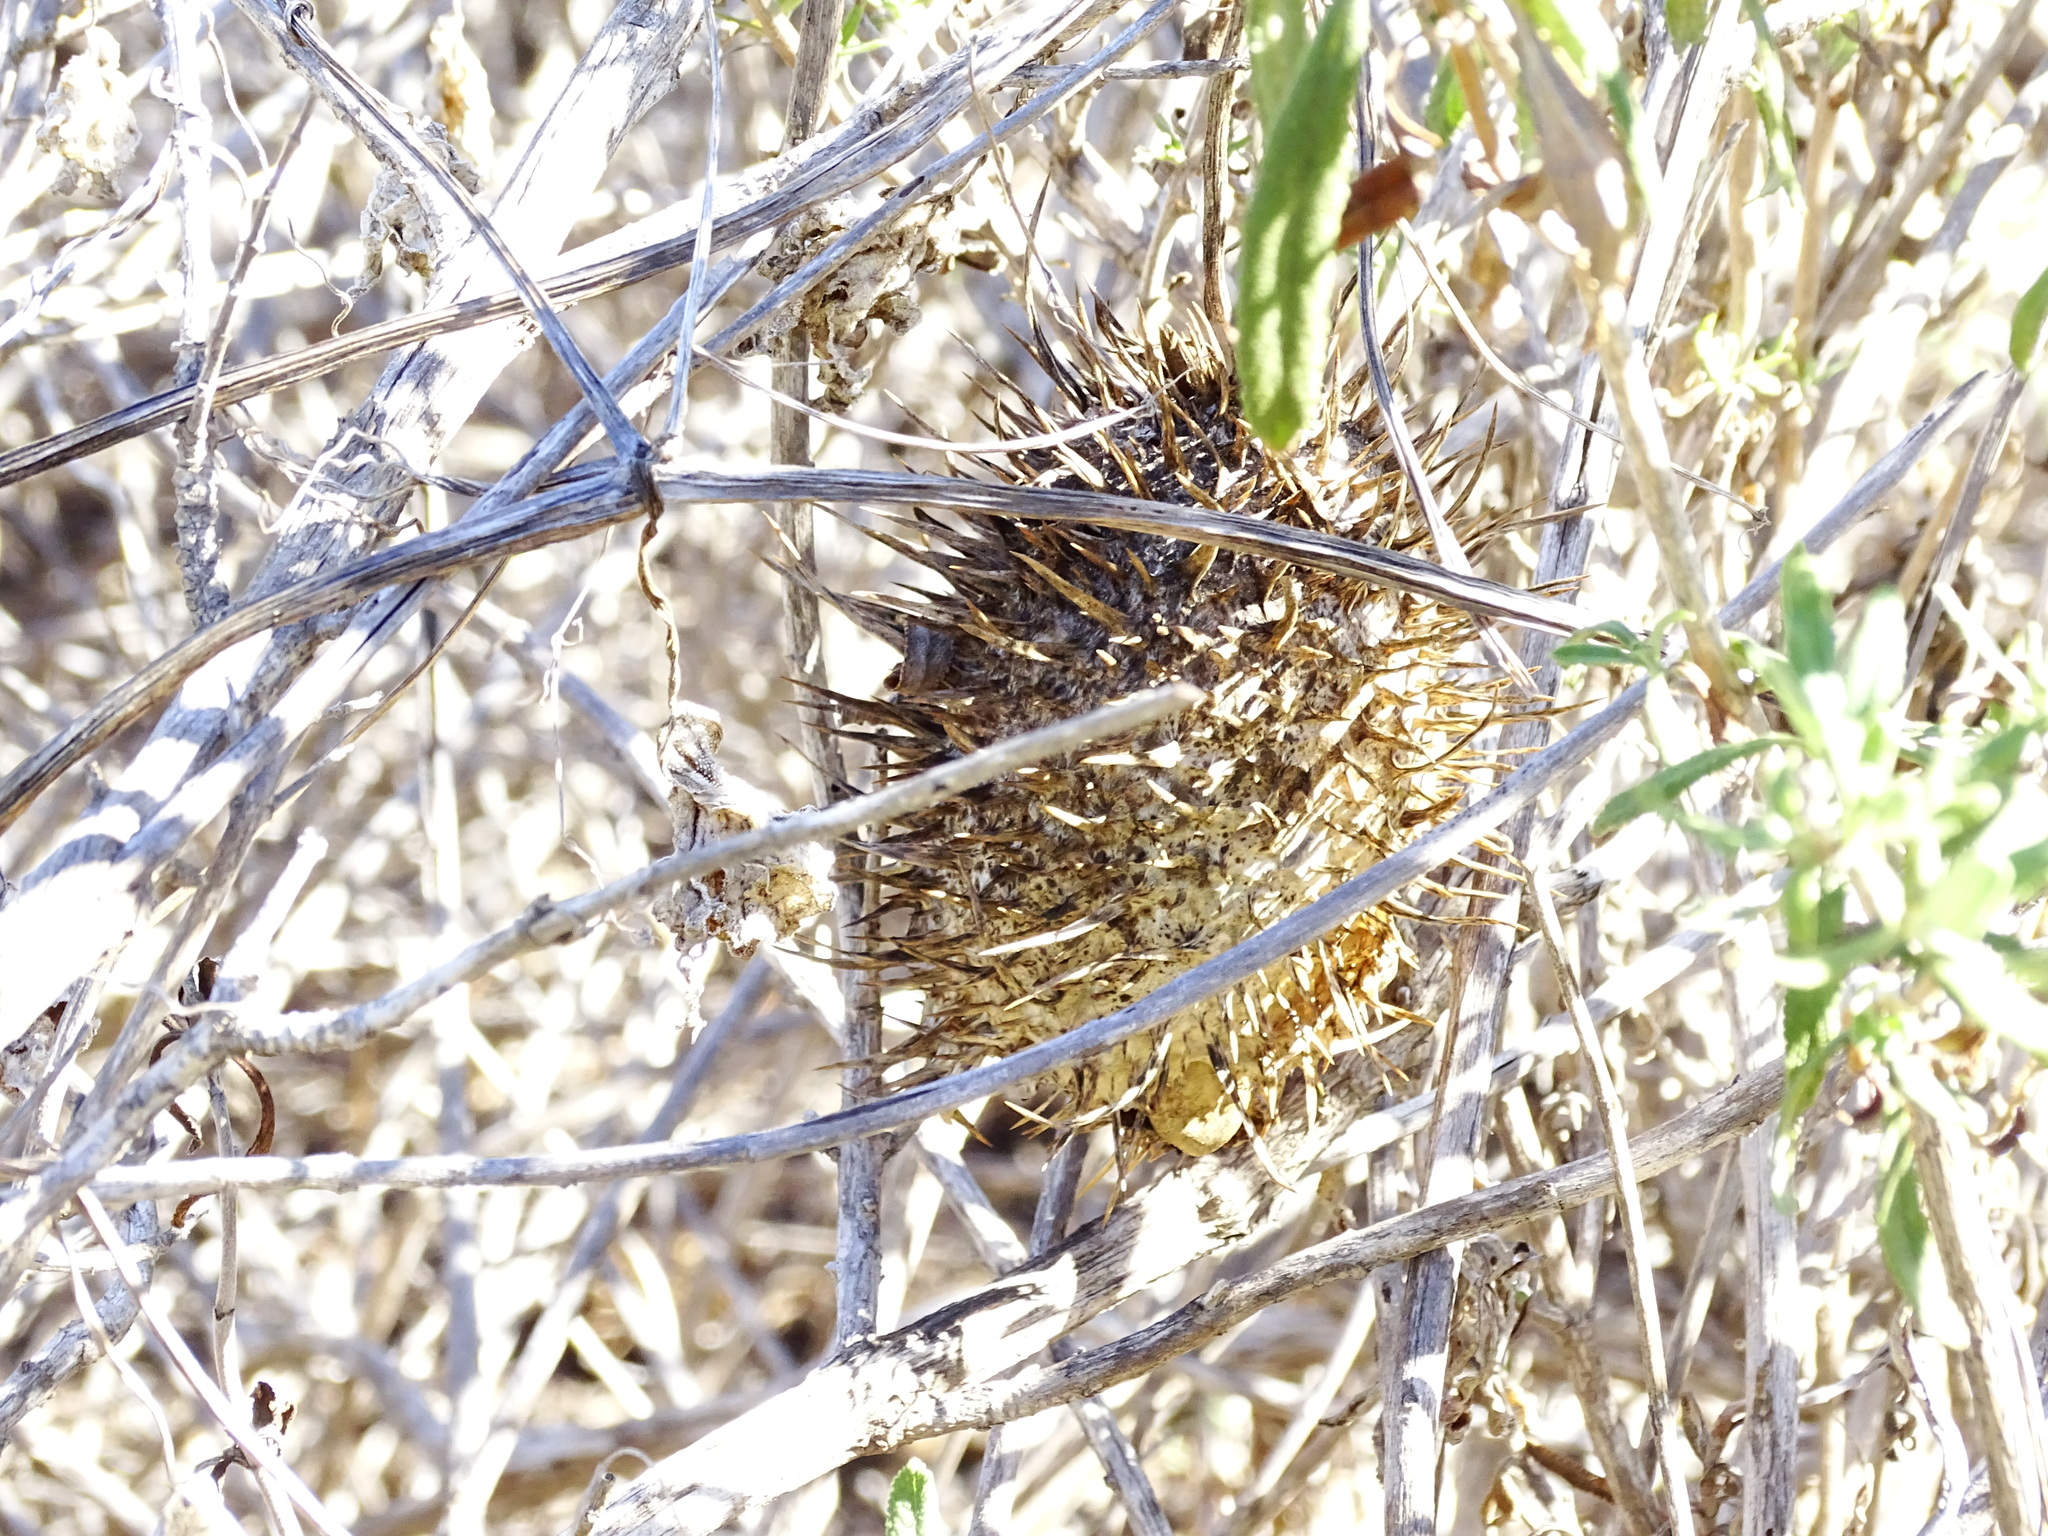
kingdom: Plantae
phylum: Tracheophyta
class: Magnoliopsida
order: Cucurbitales
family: Cucurbitaceae
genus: Marah
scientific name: Marah macrocarpa
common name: Cucamonga manroot
